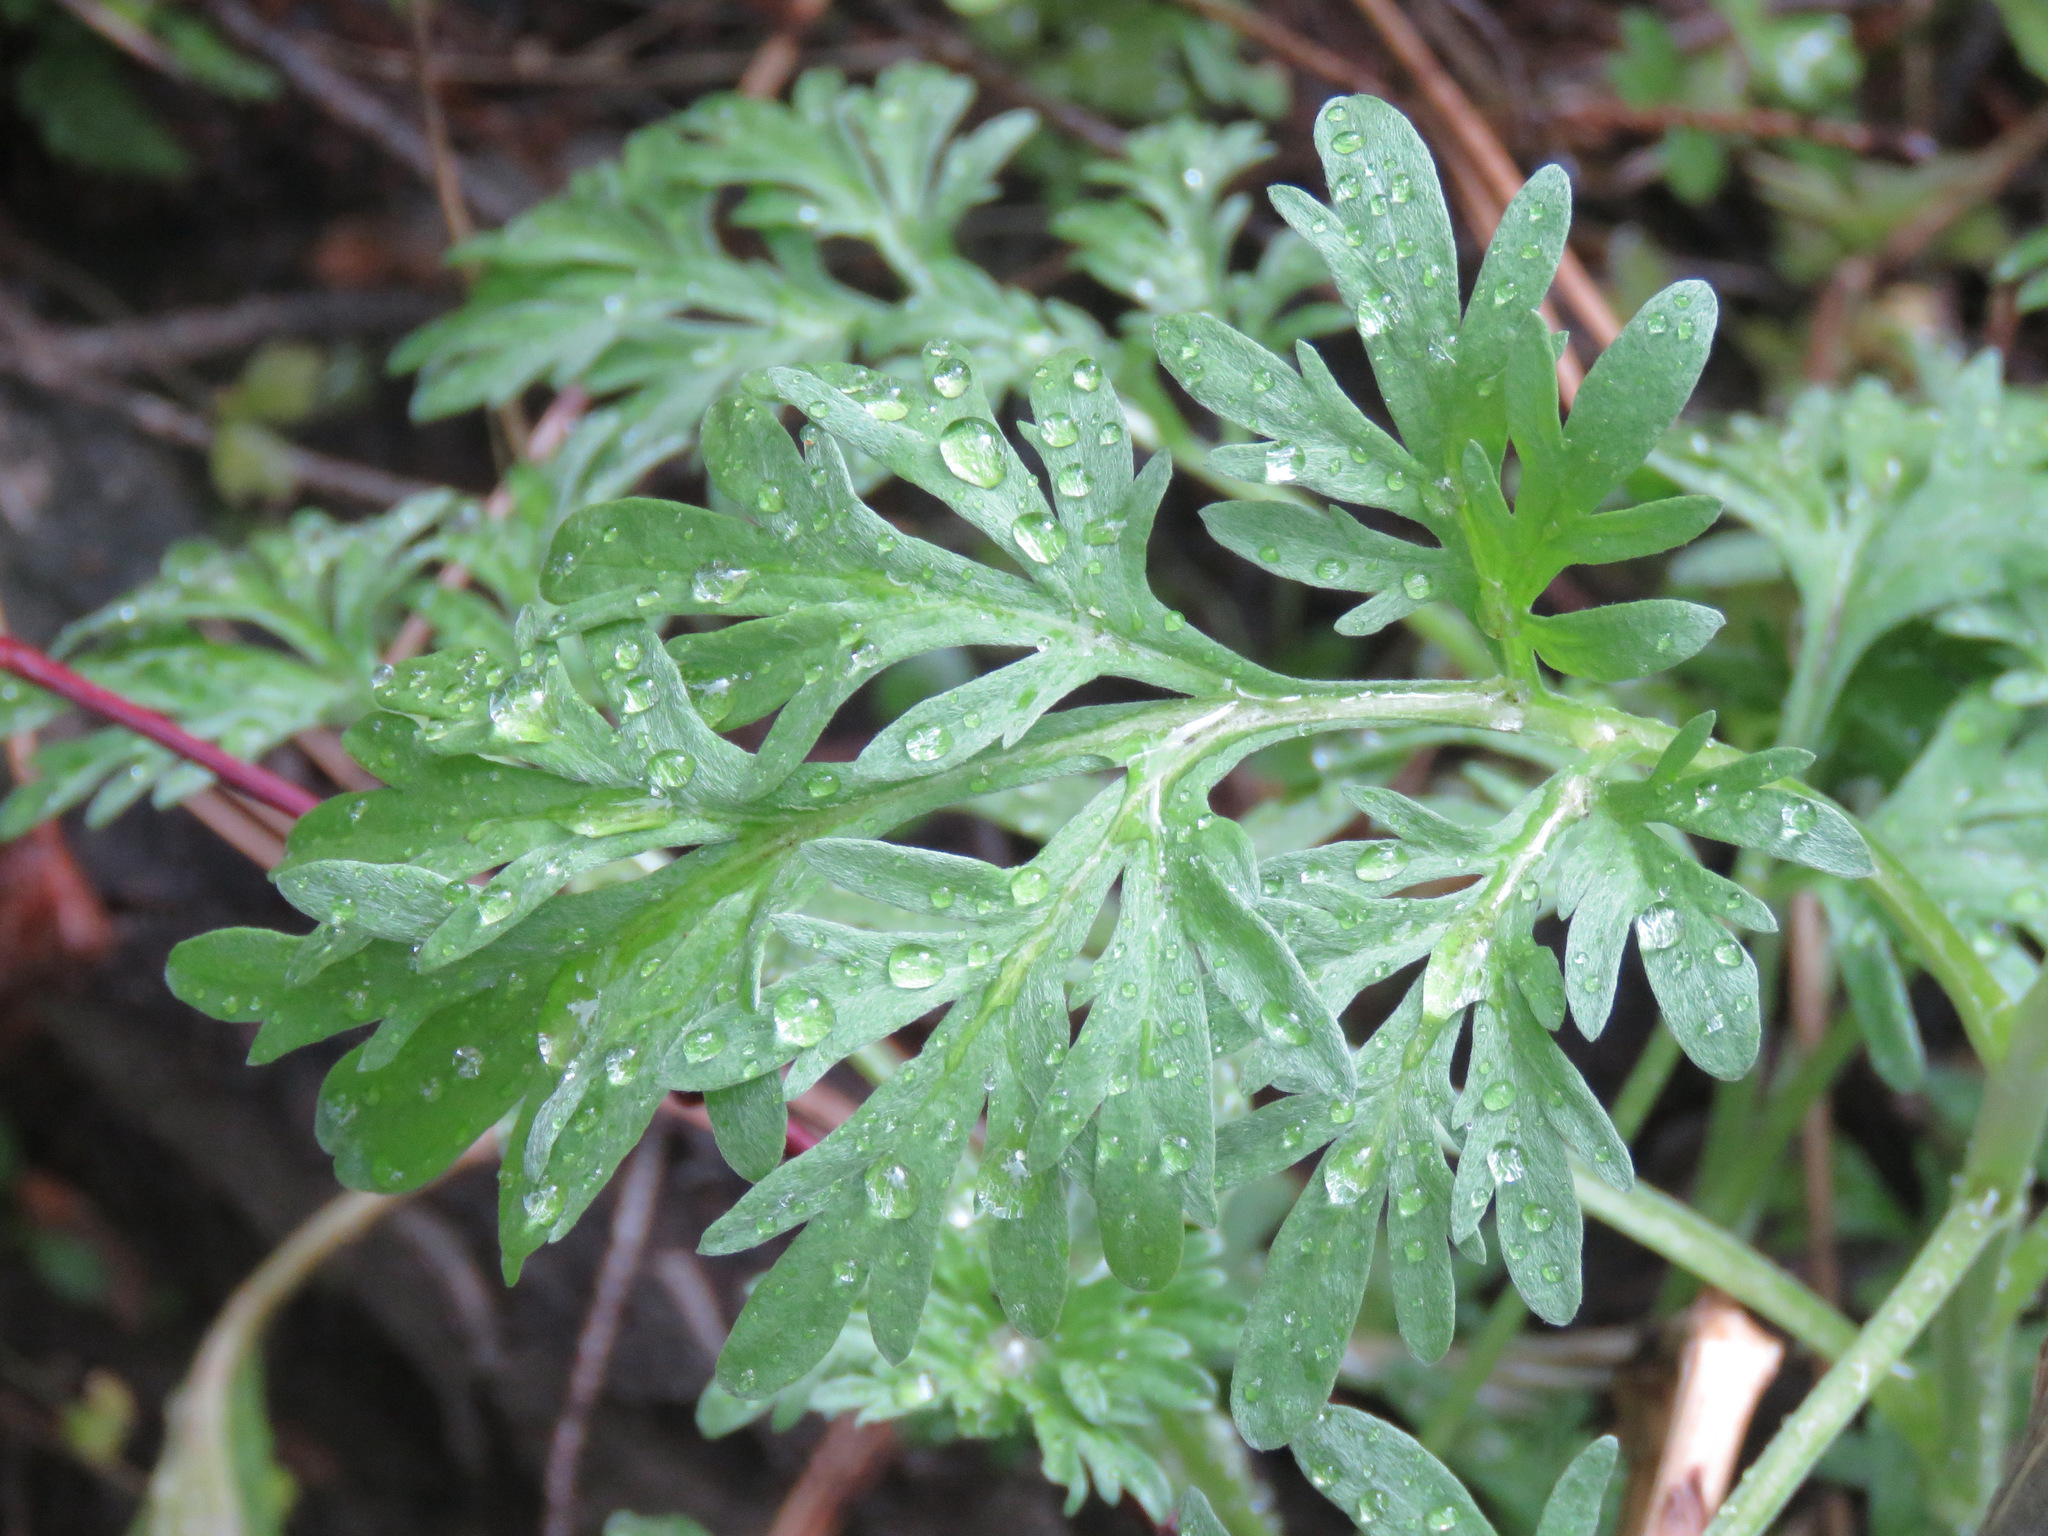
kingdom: Plantae
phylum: Tracheophyta
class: Magnoliopsida
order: Asterales
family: Asteraceae
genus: Artemisia
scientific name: Artemisia absinthium
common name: Wormwood
